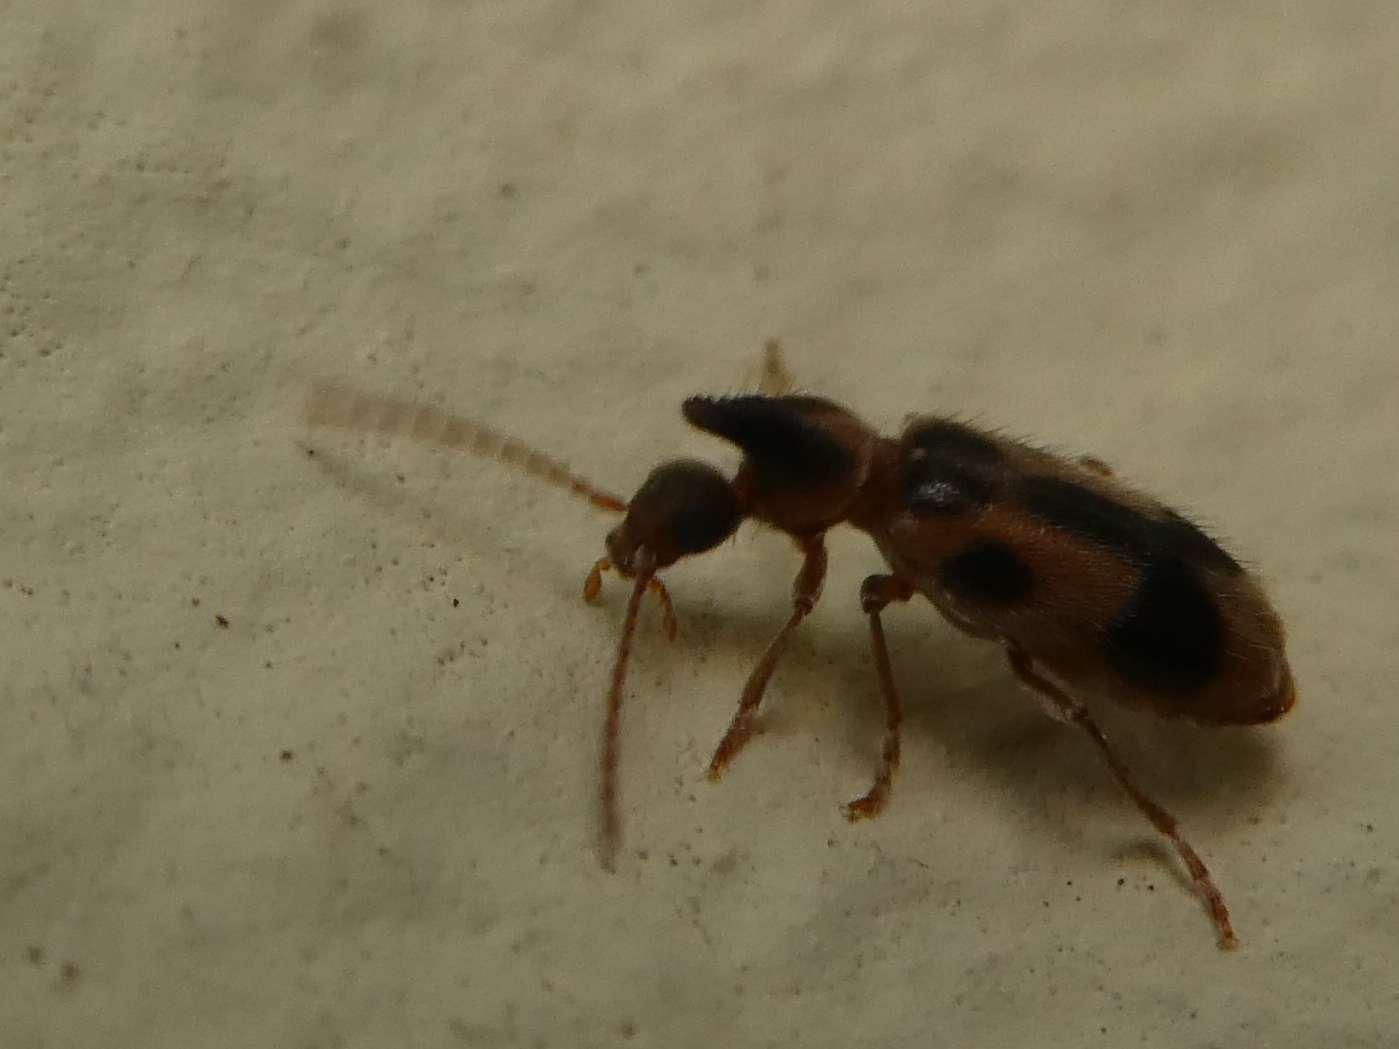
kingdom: Animalia
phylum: Arthropoda
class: Insecta
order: Coleoptera
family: Anthicidae
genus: Notoxus
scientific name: Notoxus monoceros
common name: Monoceros beetle
